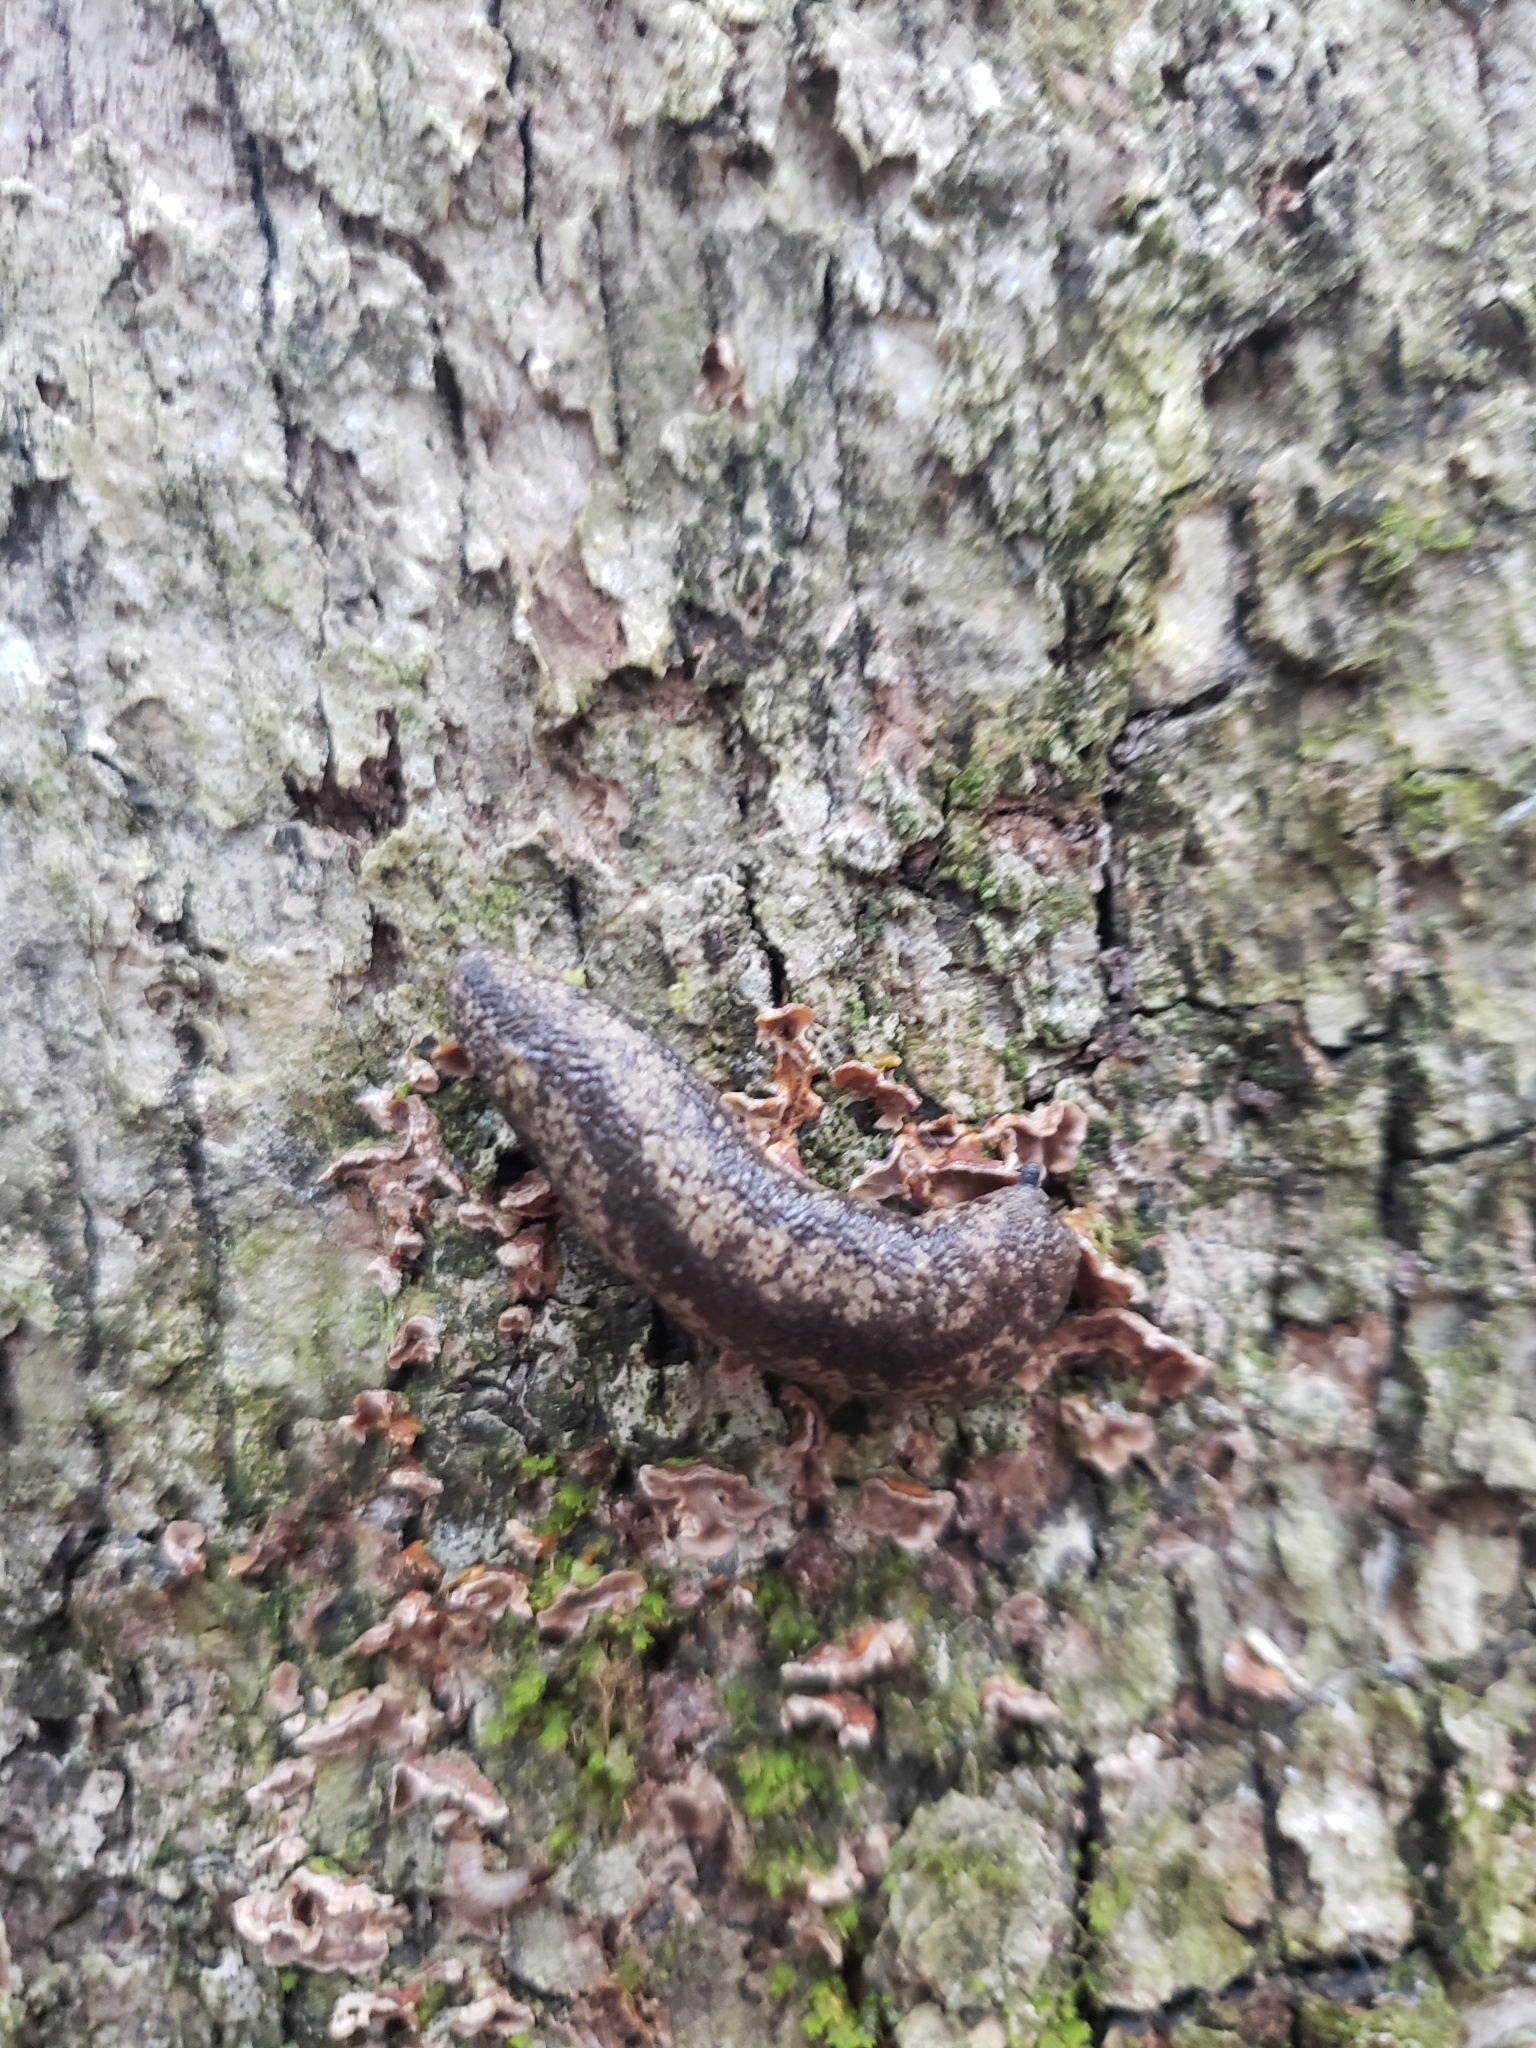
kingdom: Animalia
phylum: Mollusca
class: Gastropoda
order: Stylommatophora
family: Philomycidae
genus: Philomycus
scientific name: Philomycus flexuolaris
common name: Winding mantleslug
